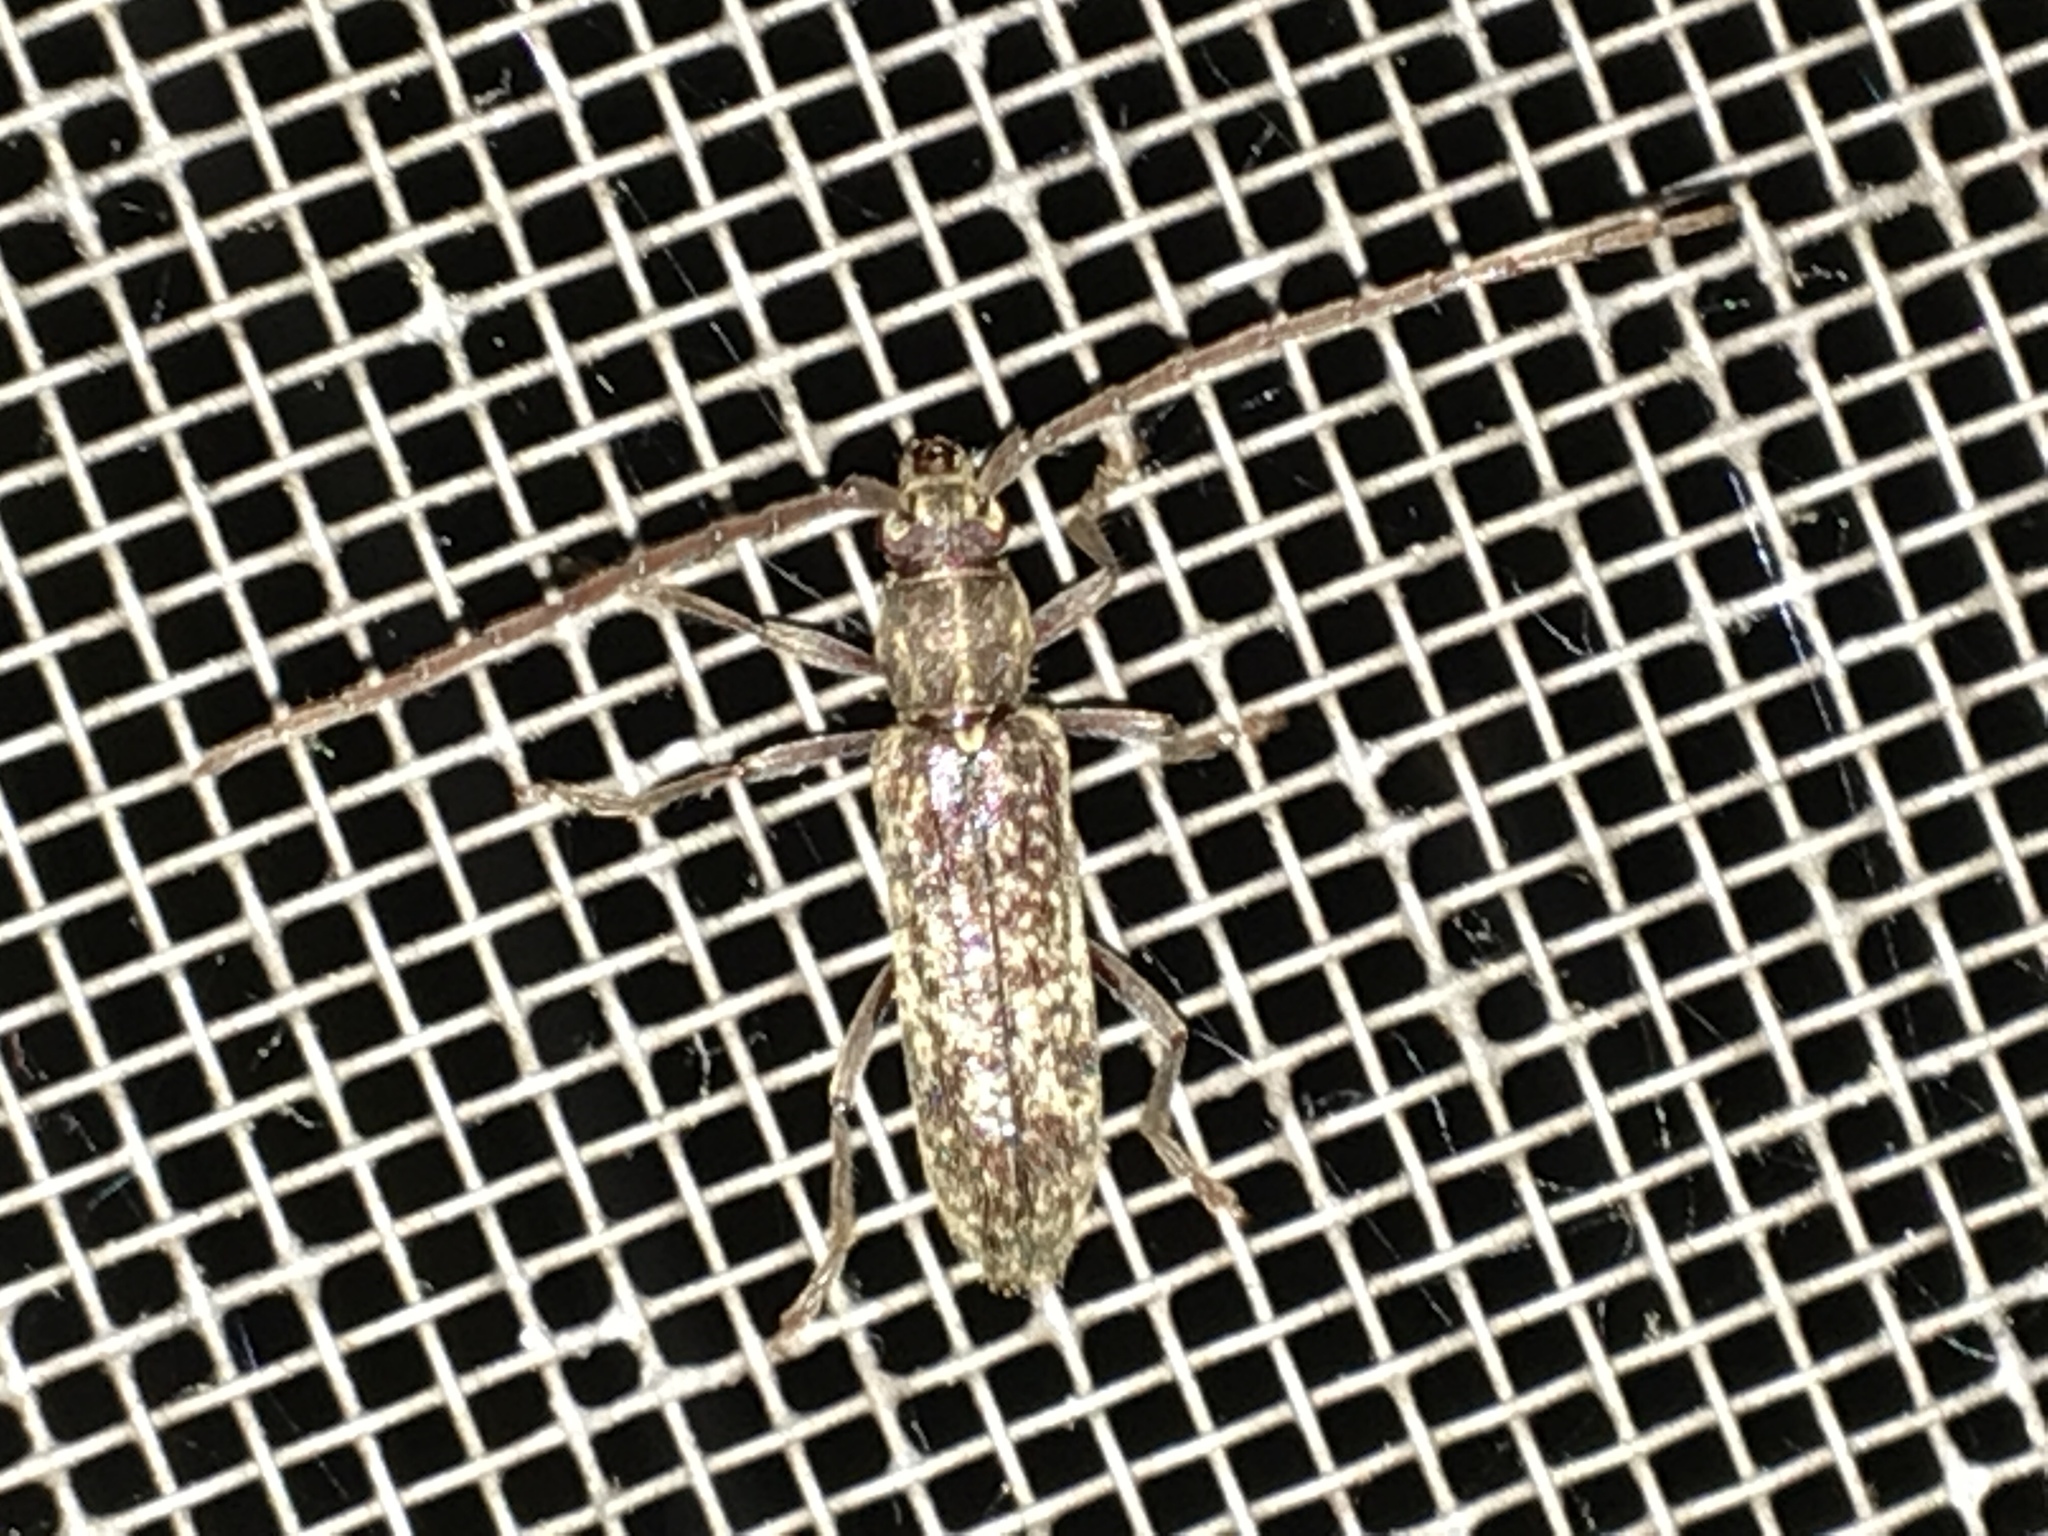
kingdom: Animalia
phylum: Arthropoda
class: Insecta
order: Coleoptera
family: Cerambycidae
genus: Anelaphus
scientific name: Anelaphus villosus
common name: Twig pruner
